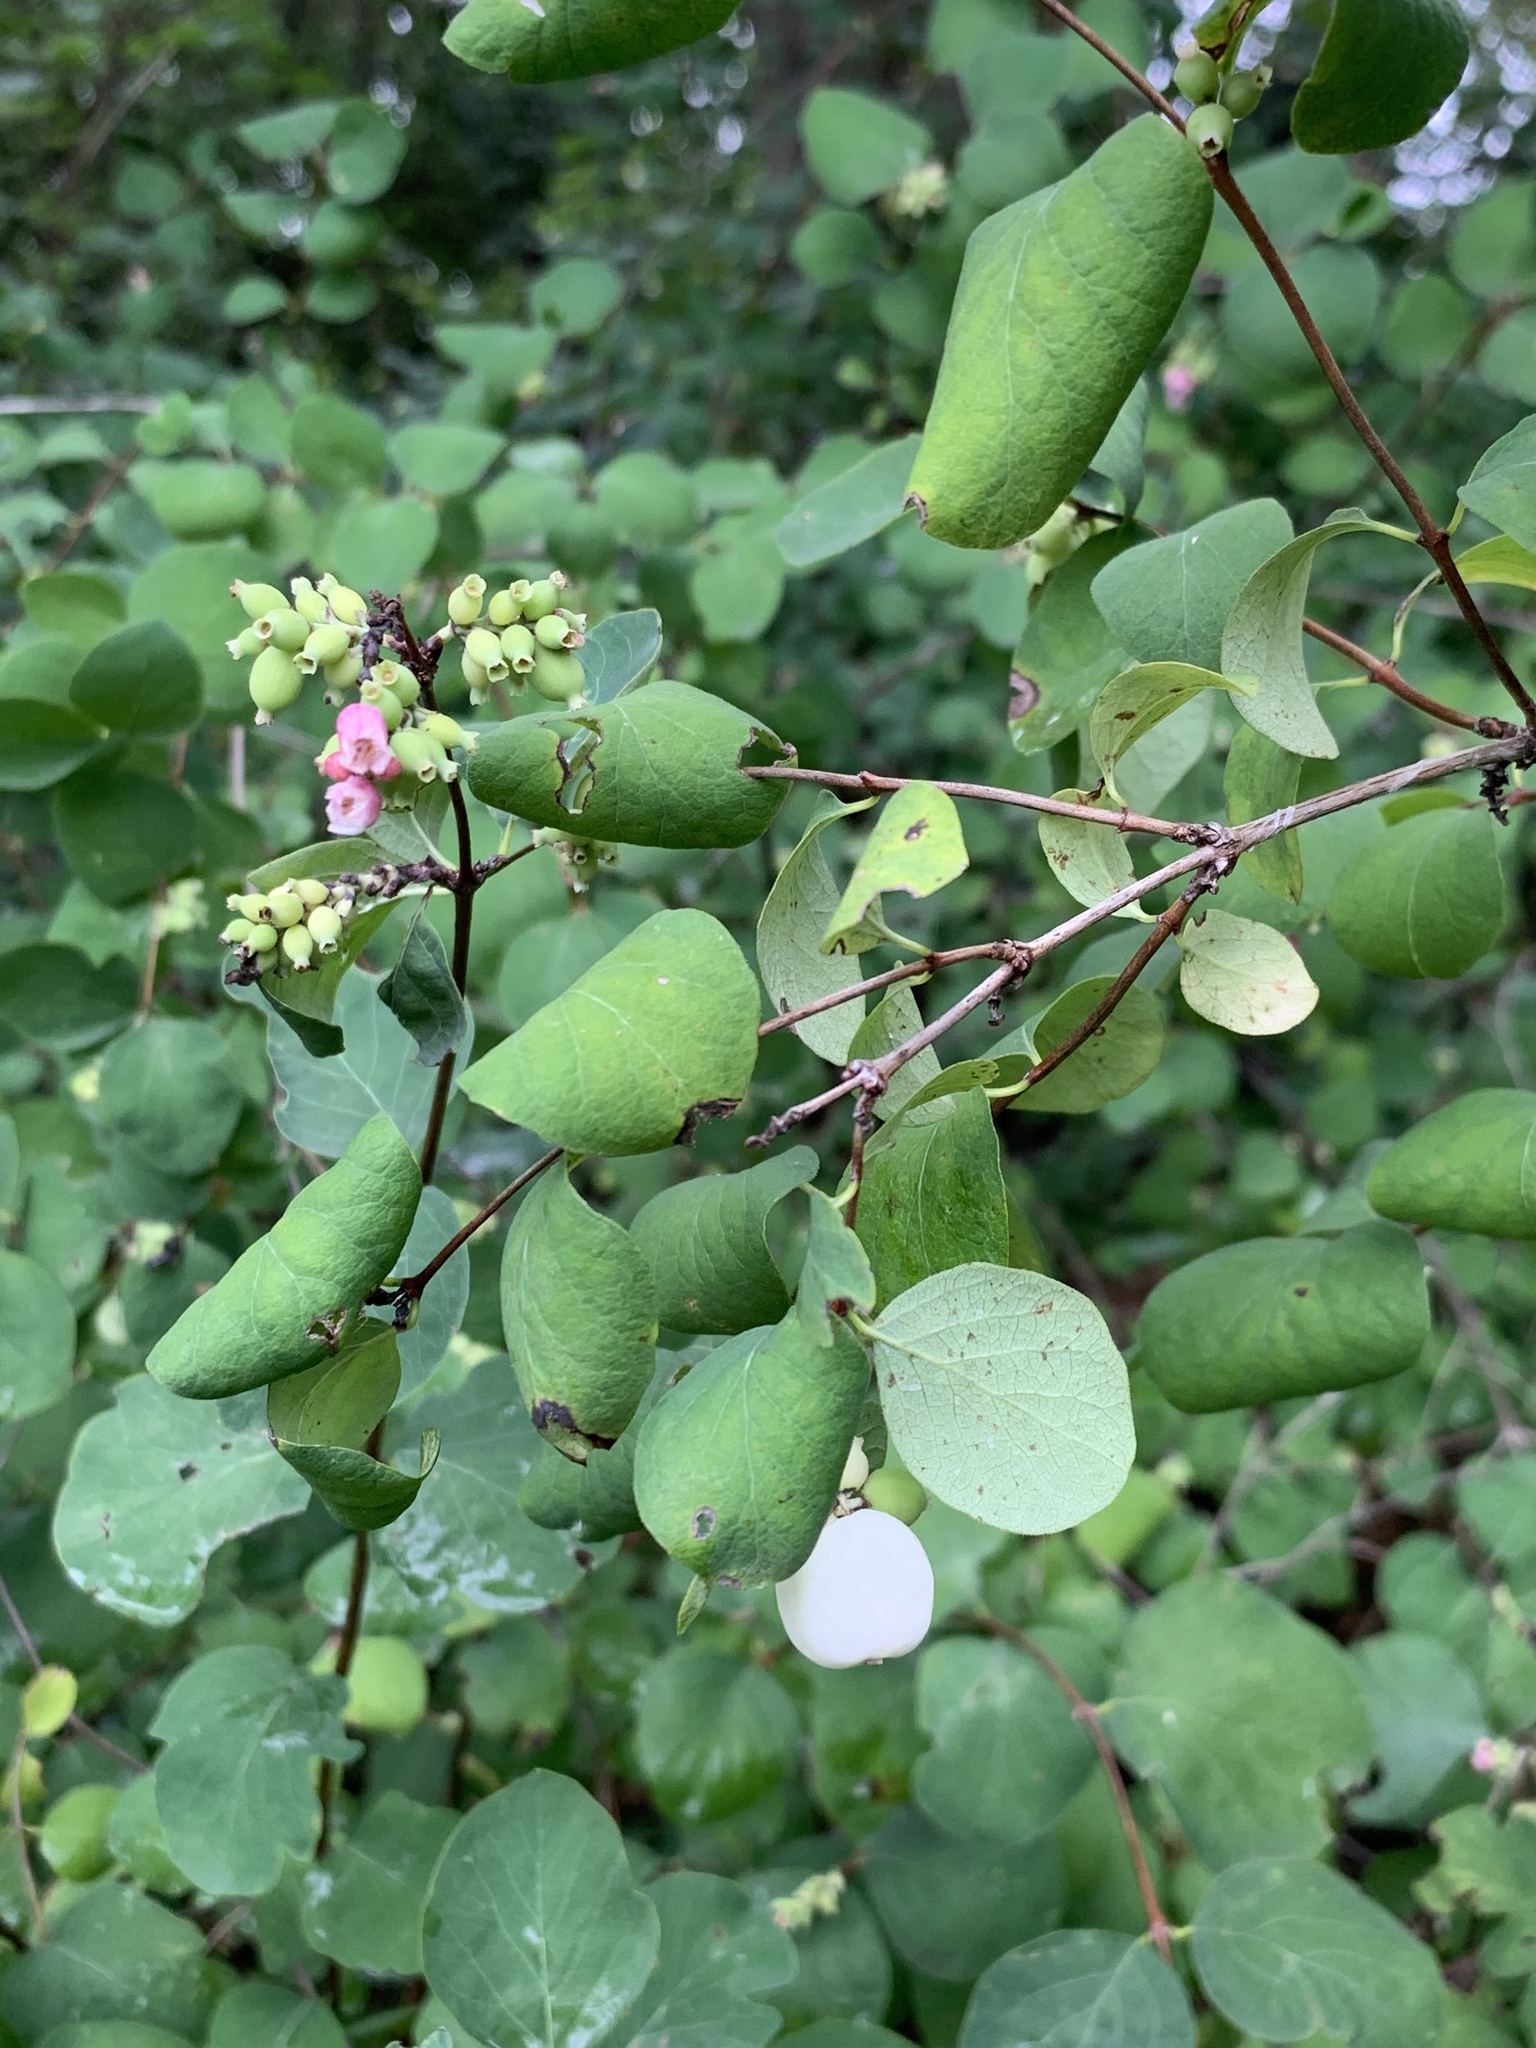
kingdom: Plantae
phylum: Tracheophyta
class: Magnoliopsida
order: Dipsacales
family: Caprifoliaceae
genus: Symphoricarpos
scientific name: Symphoricarpos albus
